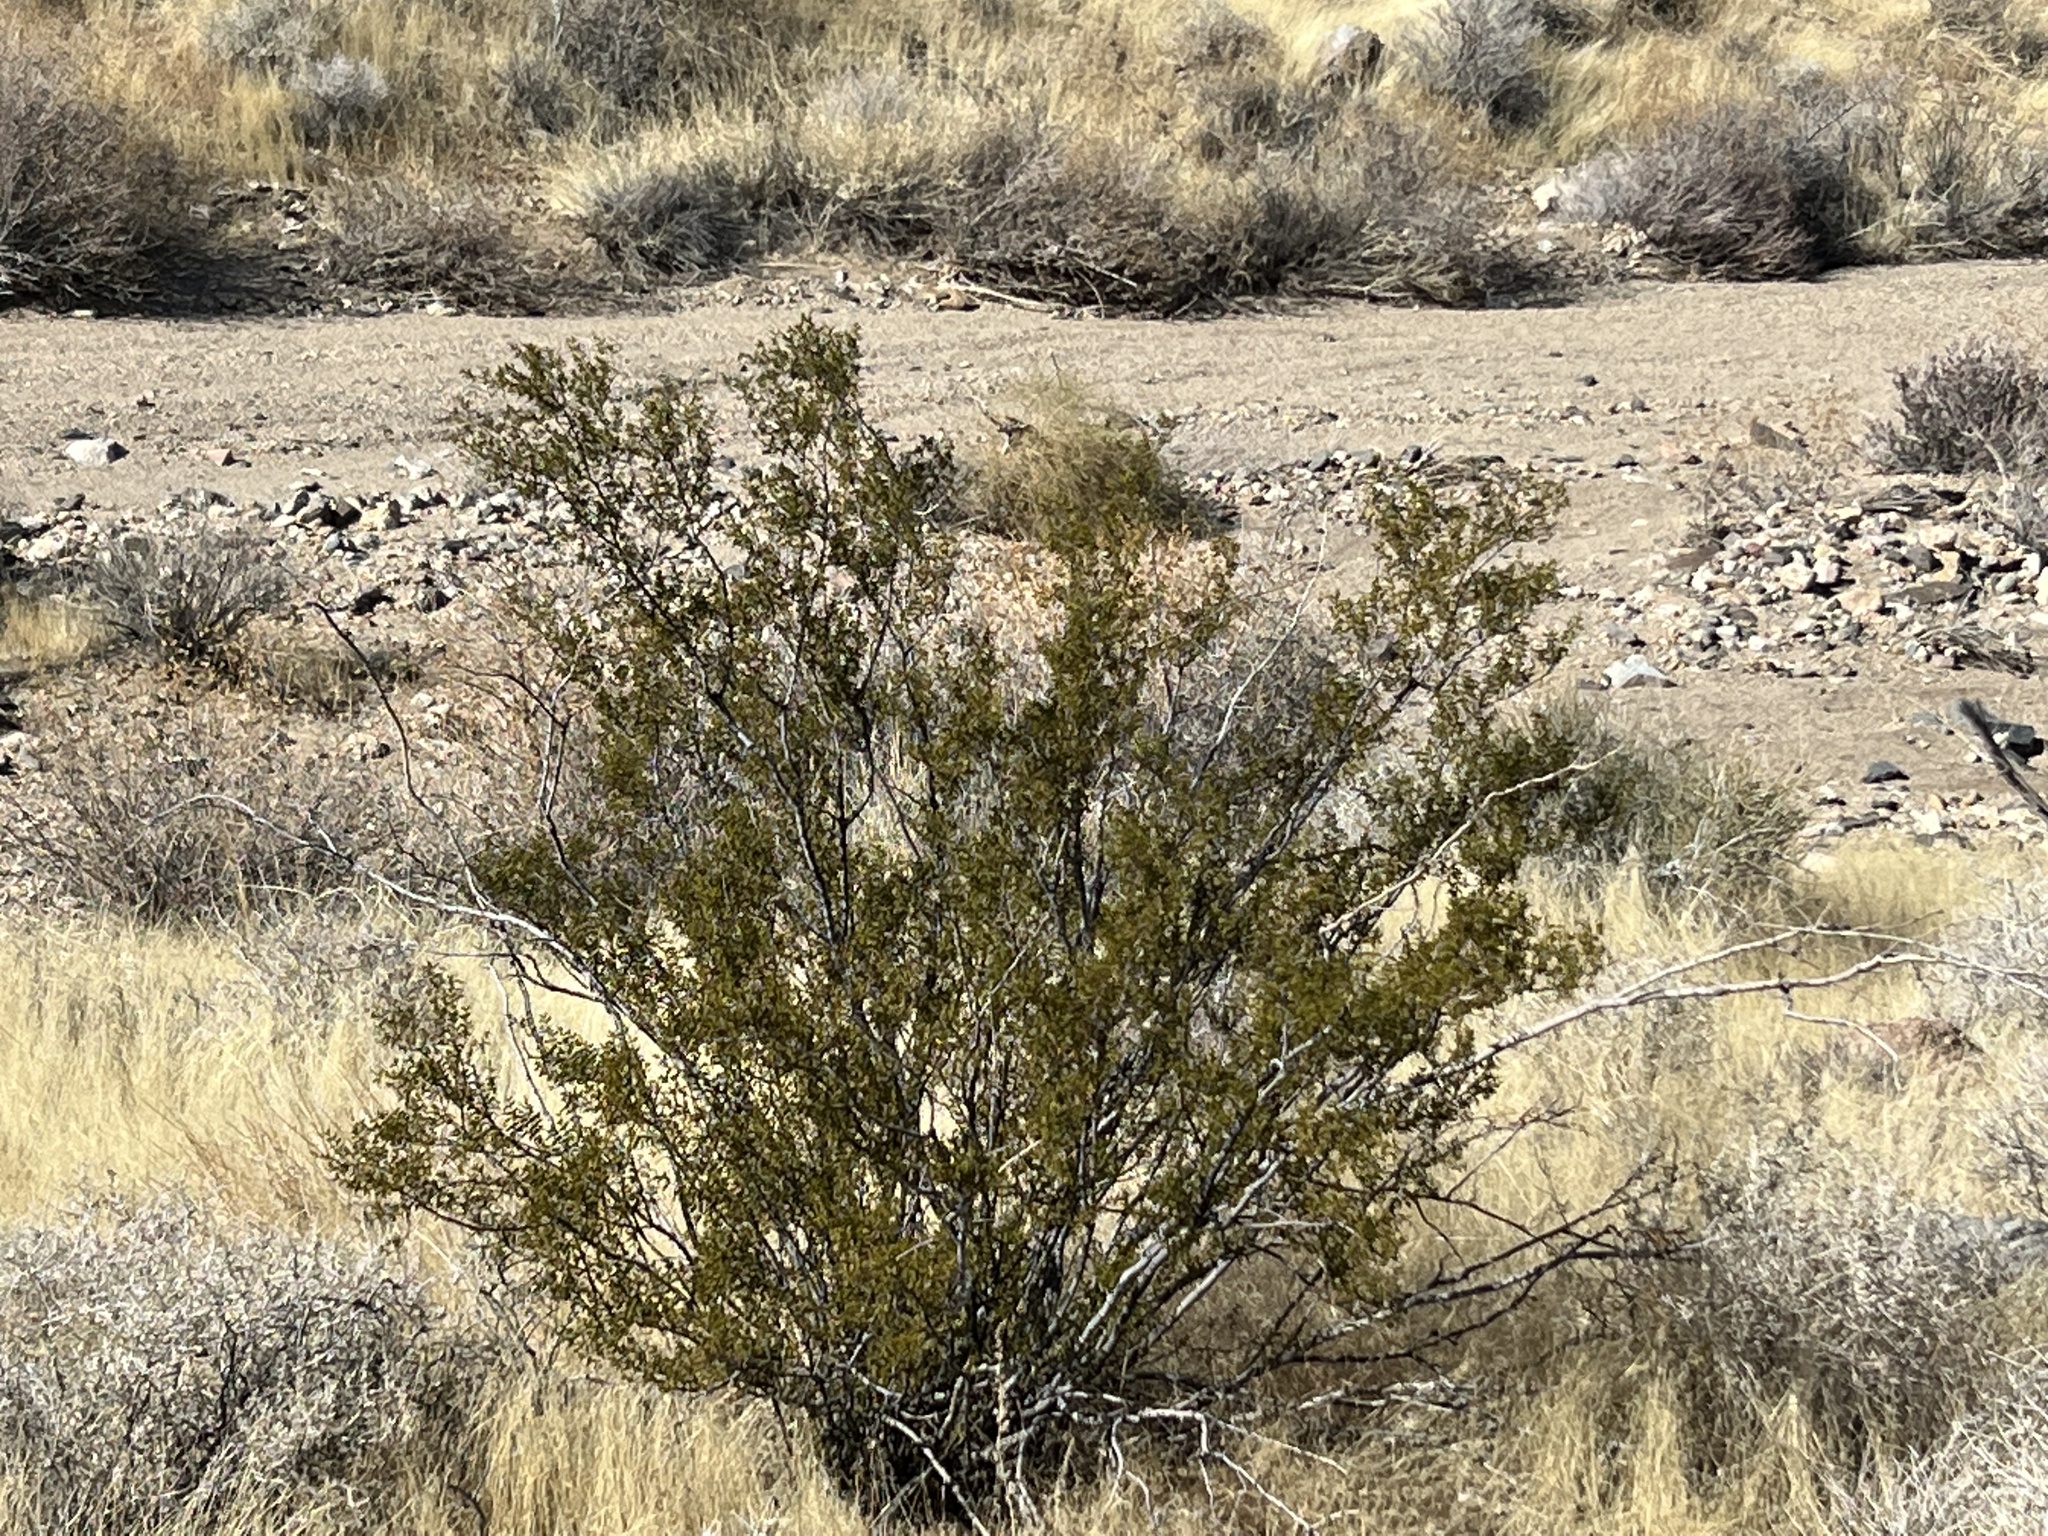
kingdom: Plantae
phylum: Tracheophyta
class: Magnoliopsida
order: Zygophyllales
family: Zygophyllaceae
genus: Larrea
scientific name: Larrea tridentata
